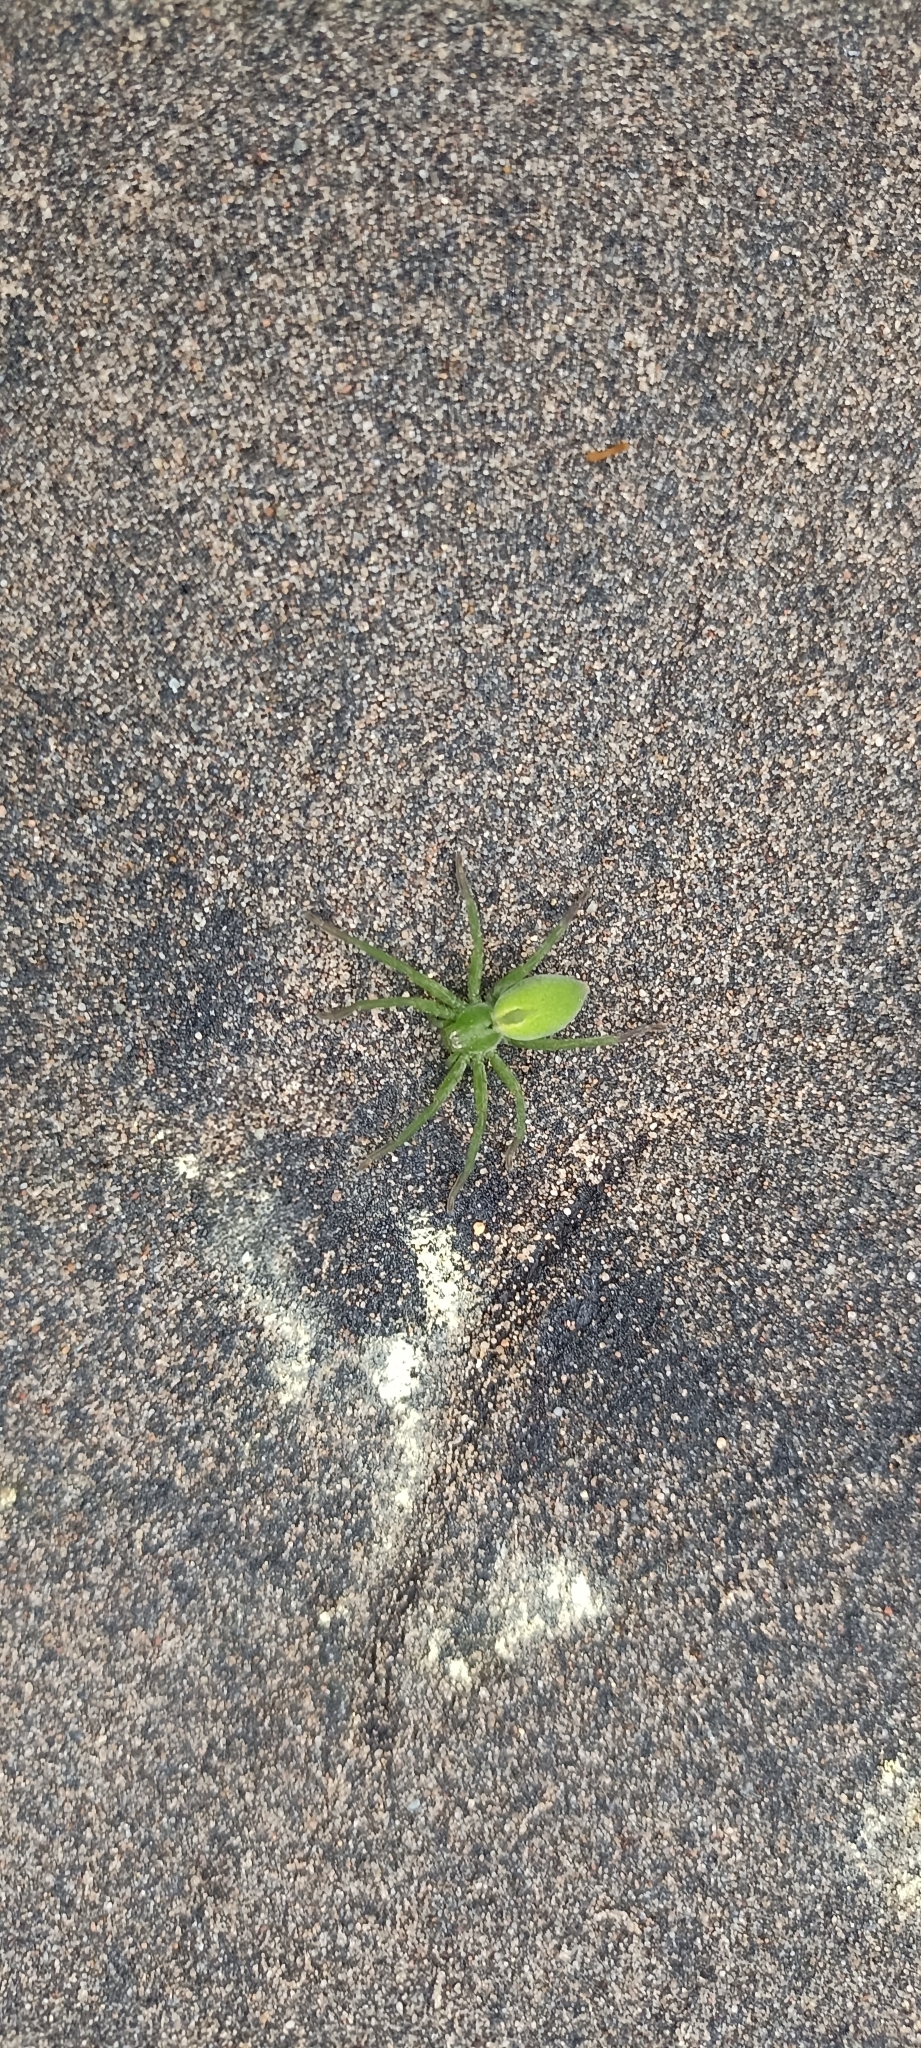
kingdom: Animalia
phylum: Arthropoda
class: Arachnida
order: Araneae
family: Sparassidae
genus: Micrommata
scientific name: Micrommata ligurina
